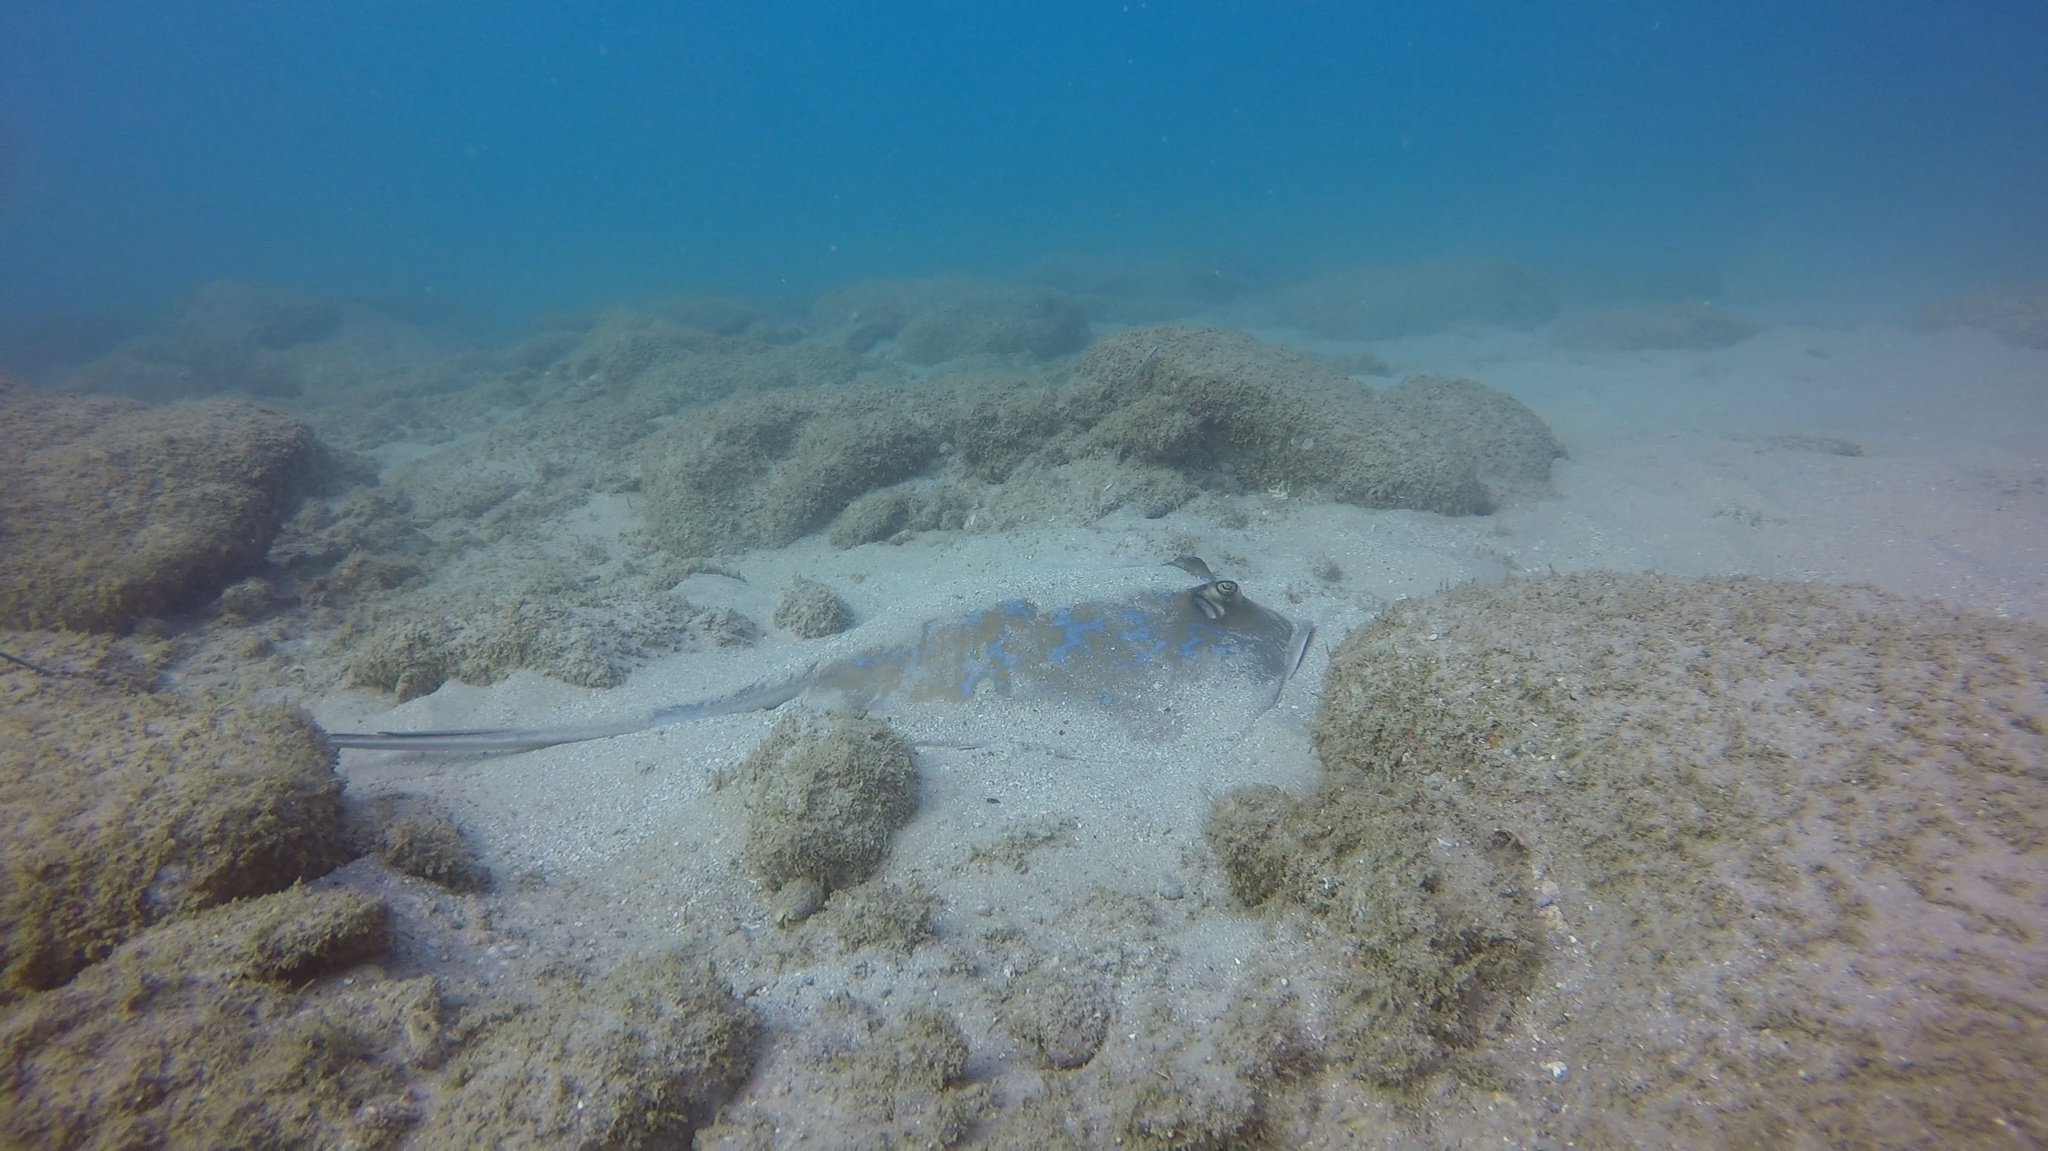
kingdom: Animalia
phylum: Chordata
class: Elasmobranchii
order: Myliobatiformes
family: Dasyatidae
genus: Dasyatis
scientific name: Dasyatis marmorata
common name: Marbled stingray
